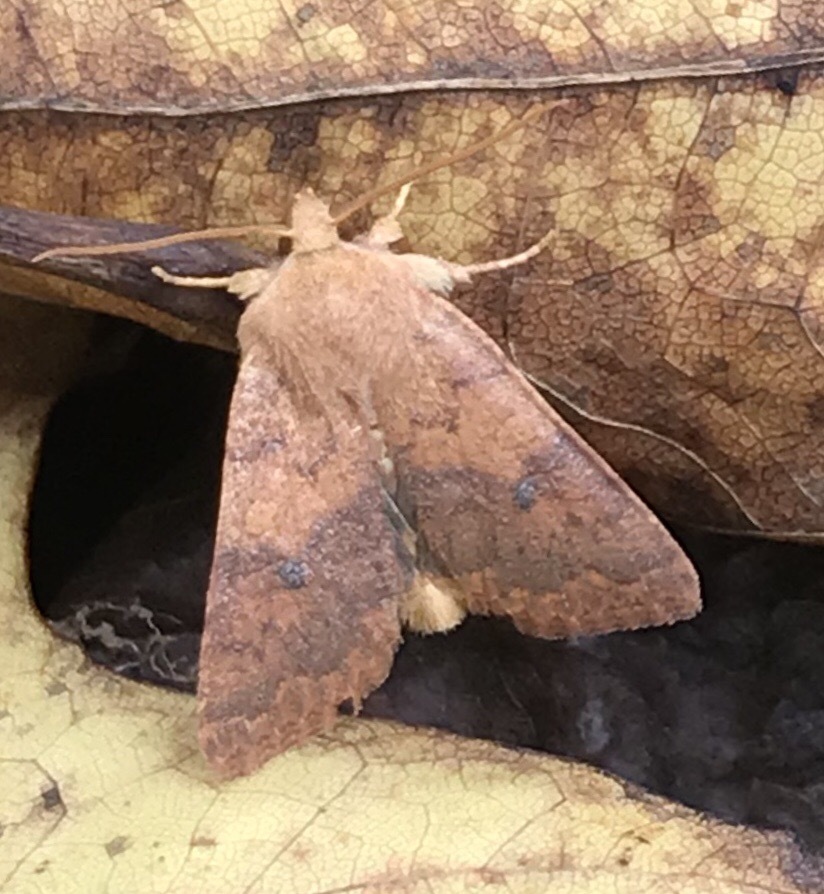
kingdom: Animalia
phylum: Arthropoda
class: Insecta
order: Lepidoptera
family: Noctuidae
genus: Agrochola
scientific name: Agrochola bicolorago
